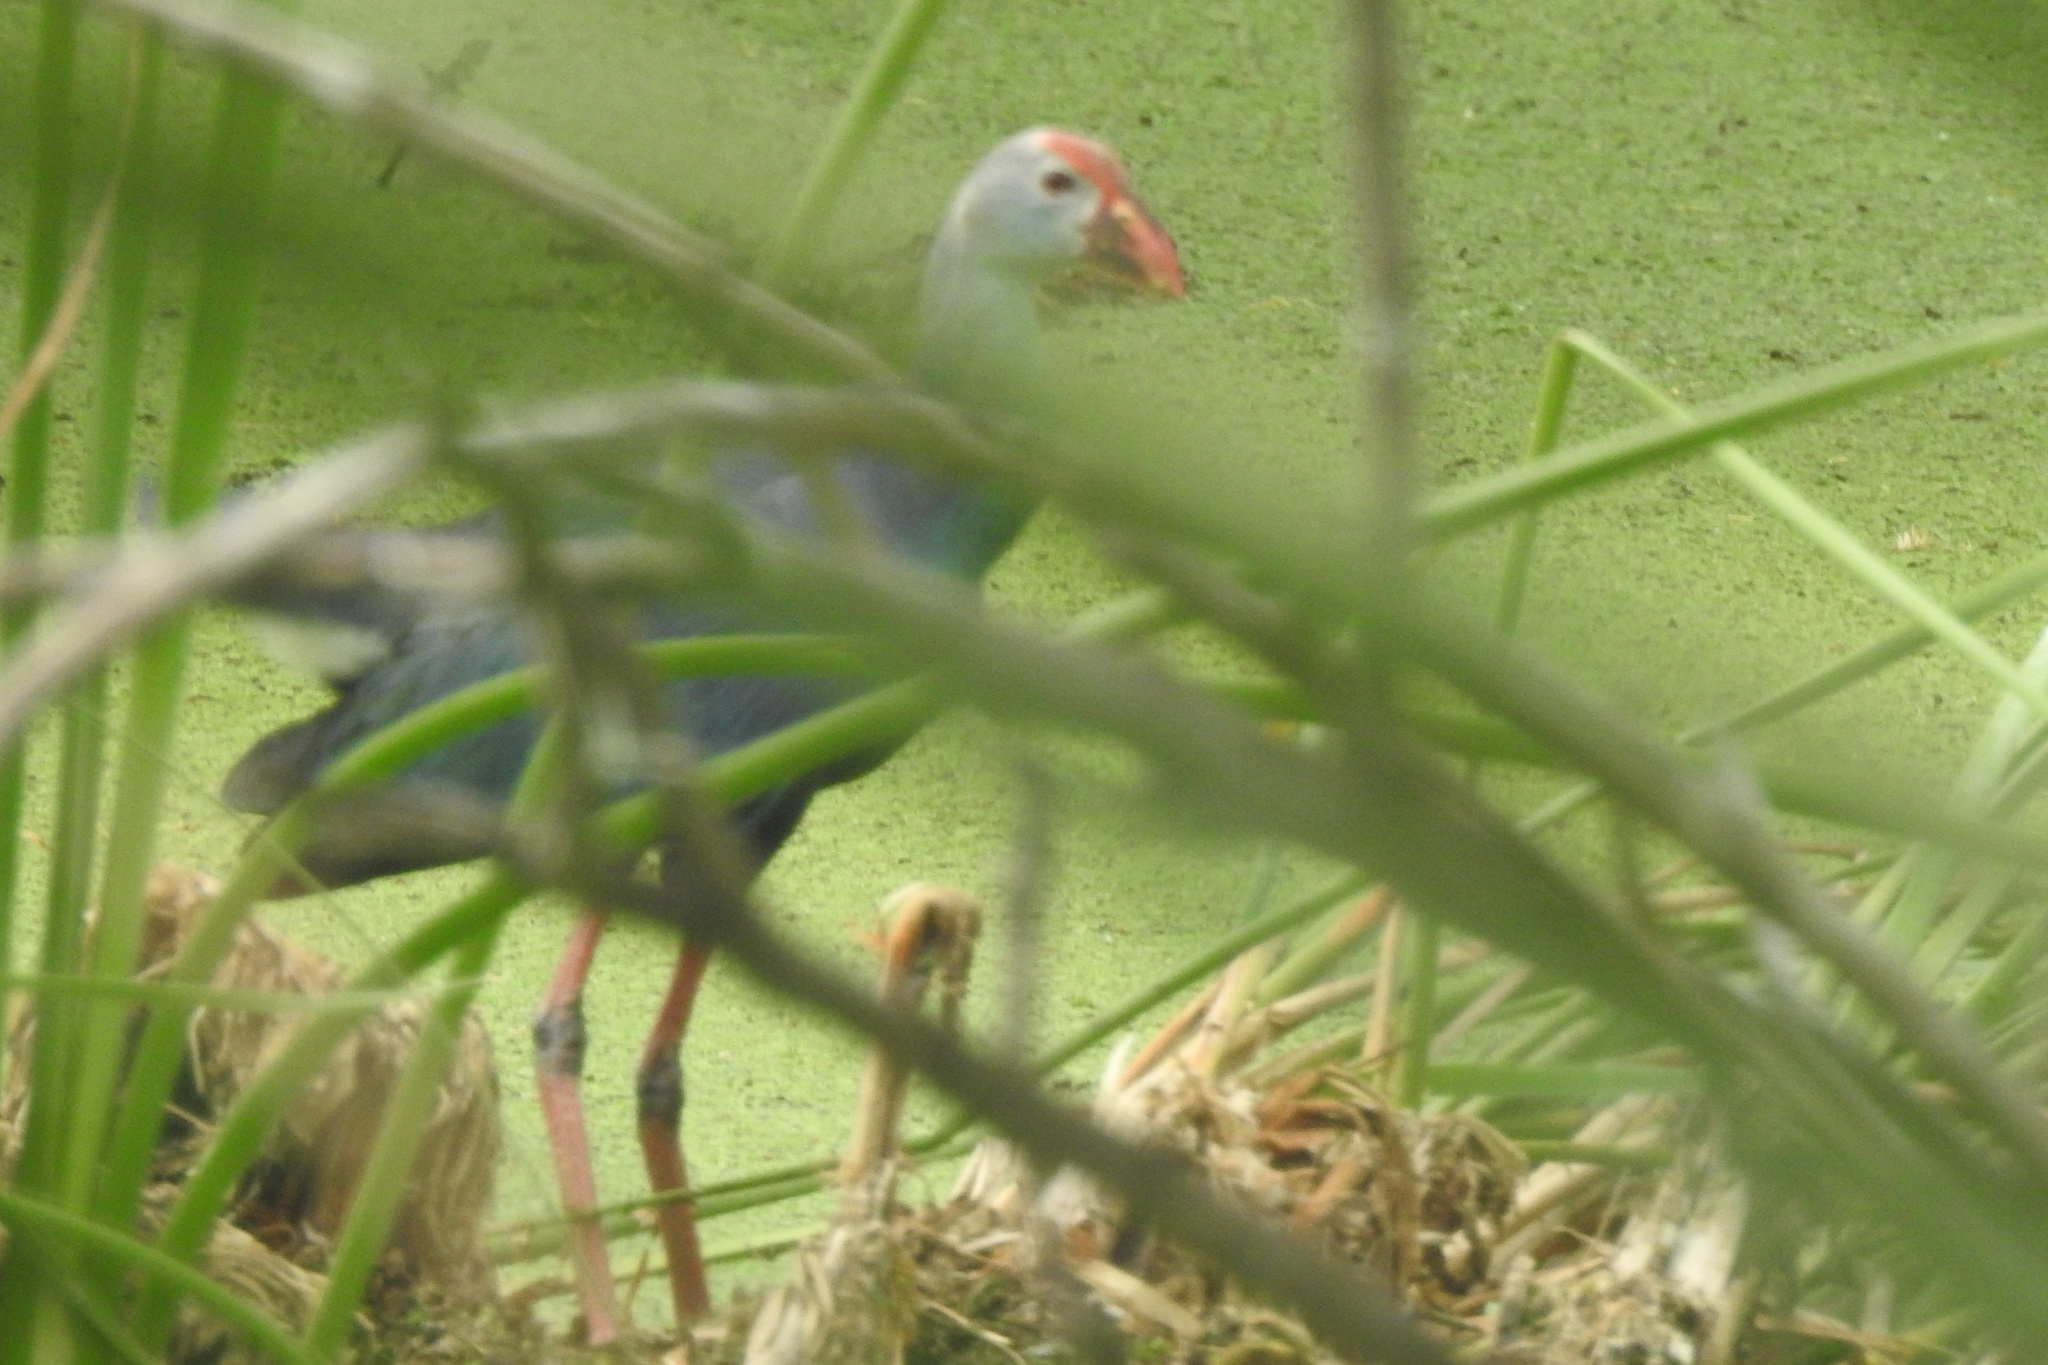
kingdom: Animalia
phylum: Chordata
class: Aves
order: Gruiformes
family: Rallidae
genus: Porphyrio
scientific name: Porphyrio porphyrio
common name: Purple swamphen
